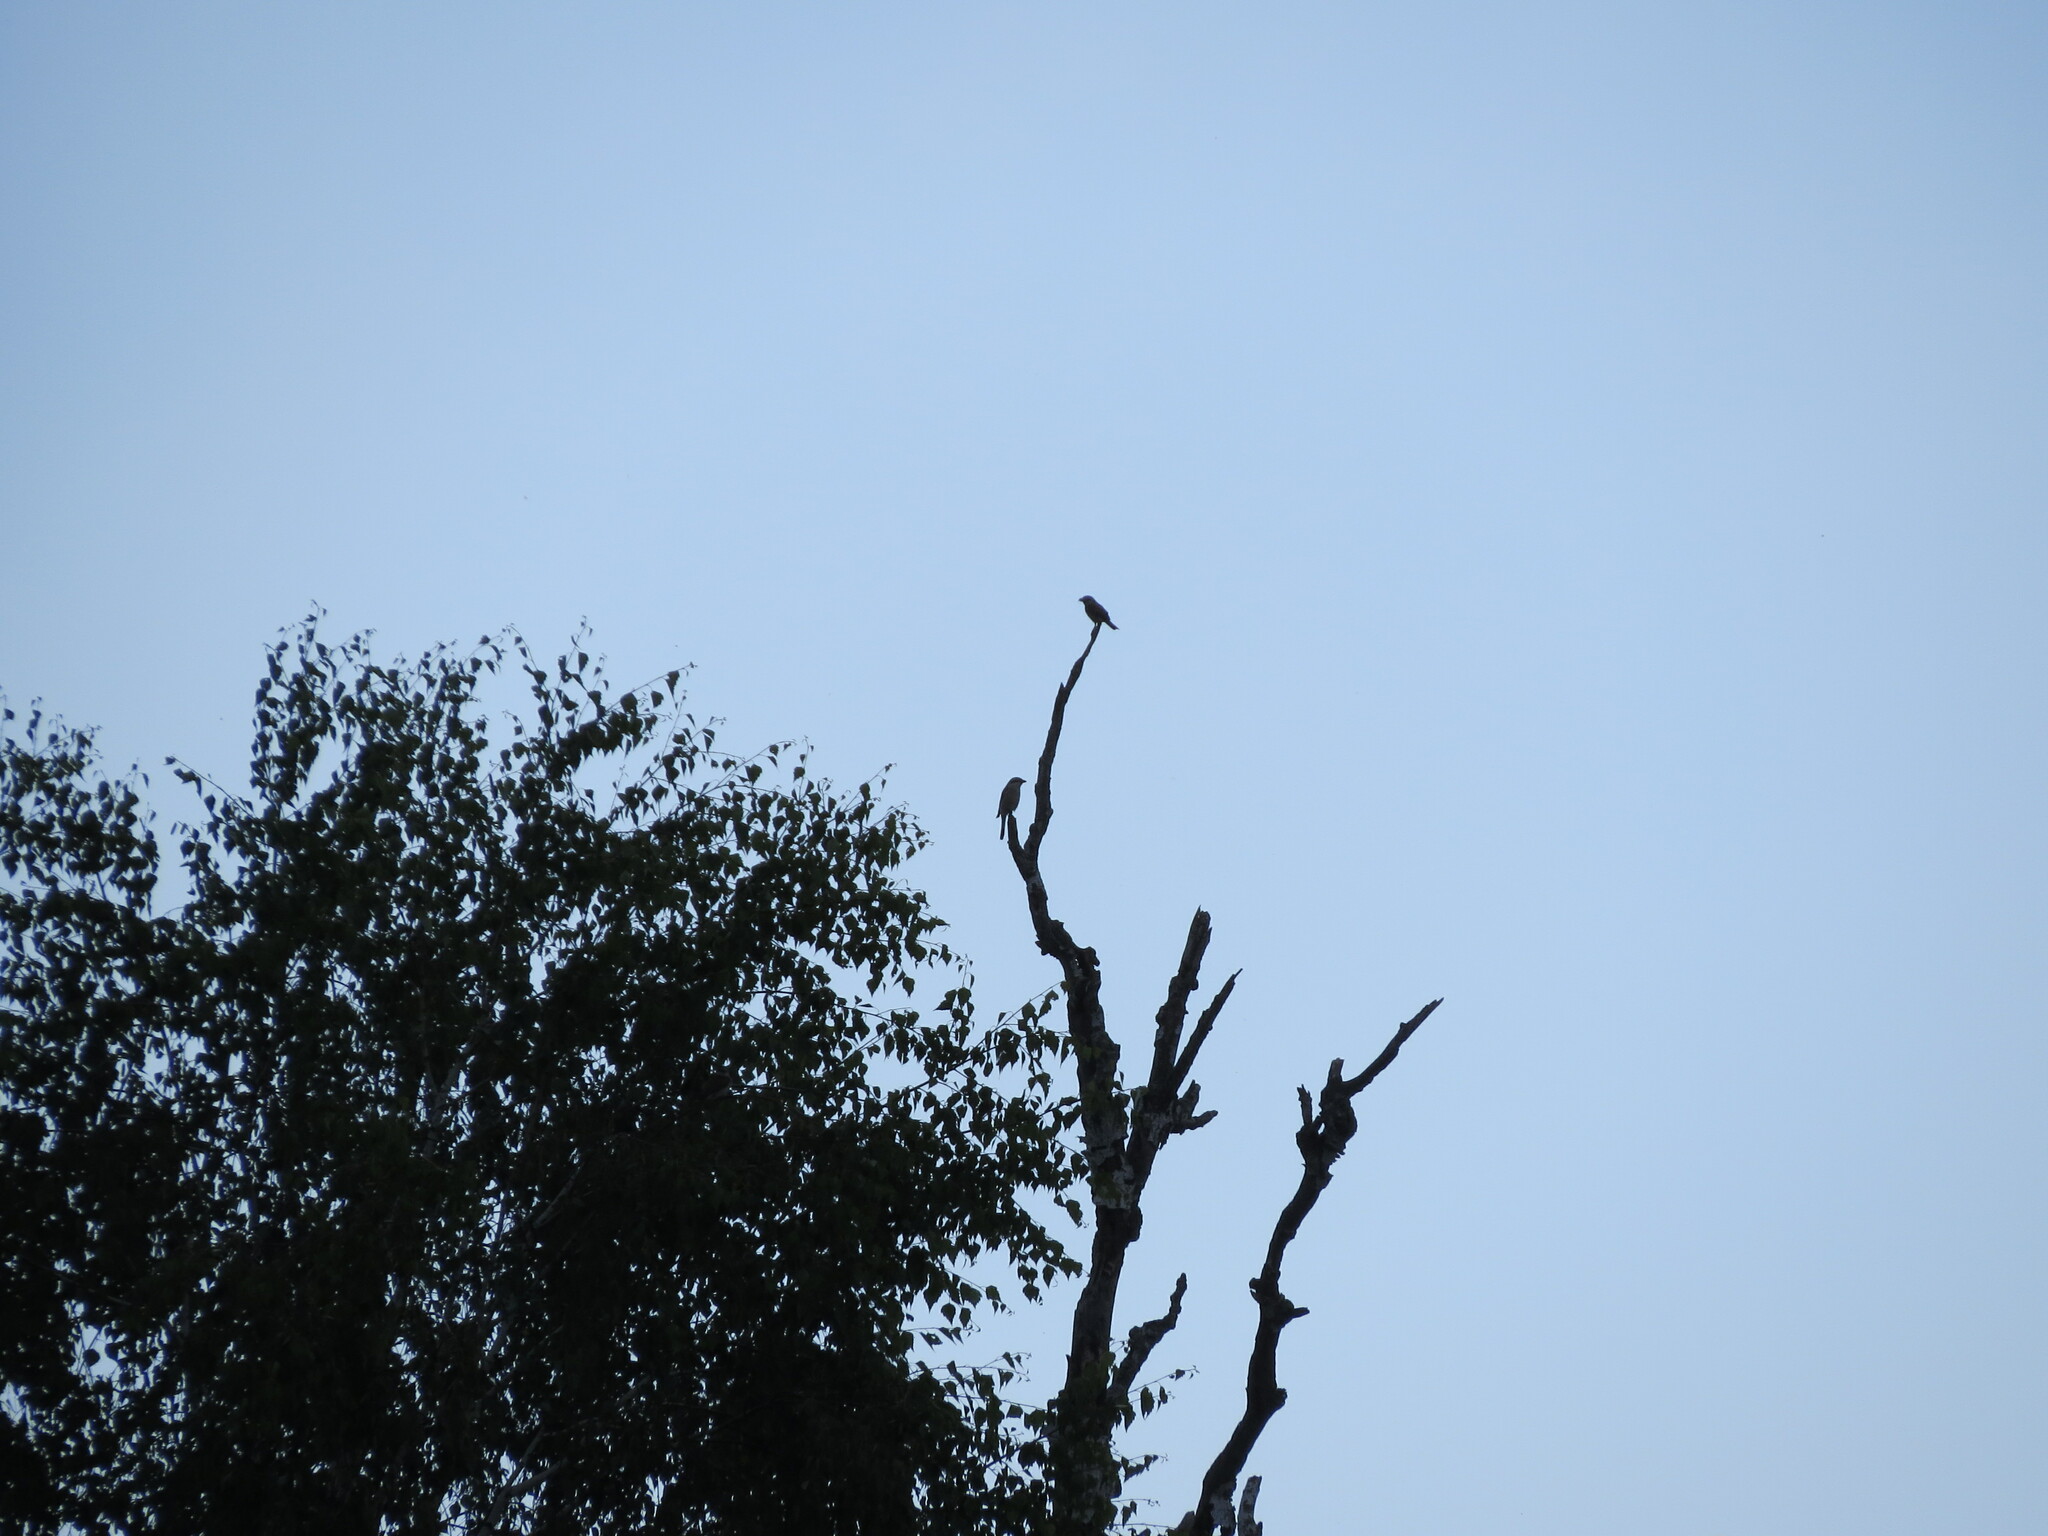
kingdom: Animalia
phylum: Chordata
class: Aves
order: Passeriformes
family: Laniidae
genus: Lanius
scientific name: Lanius collurio
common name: Red-backed shrike
